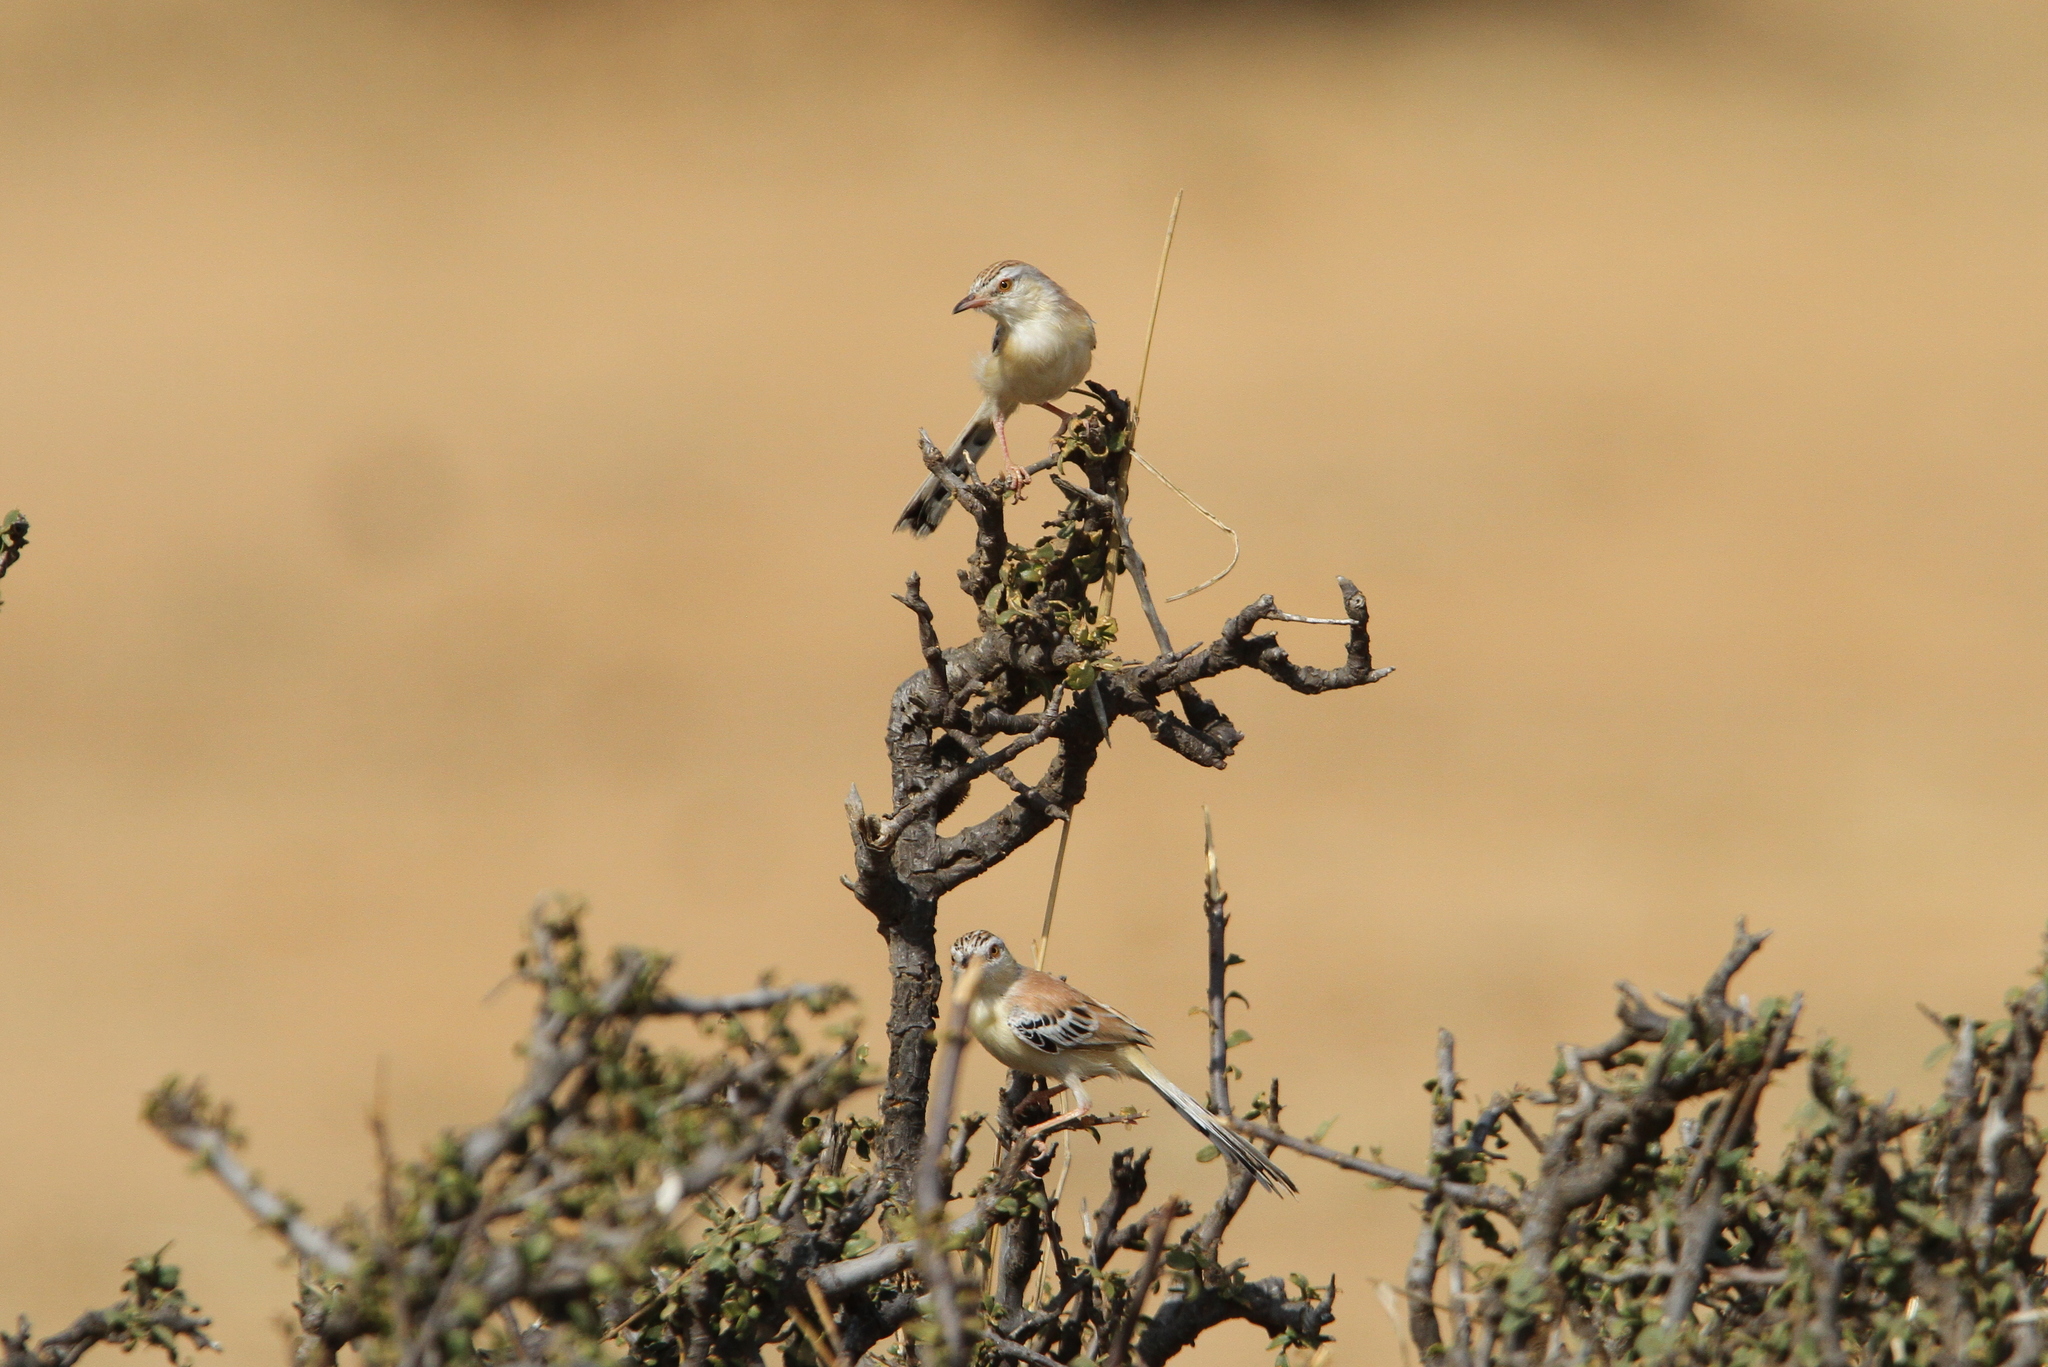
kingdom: Animalia
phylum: Chordata
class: Aves
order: Passeriformes
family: Cisticolidae
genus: Spiloptila
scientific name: Spiloptila clamans
